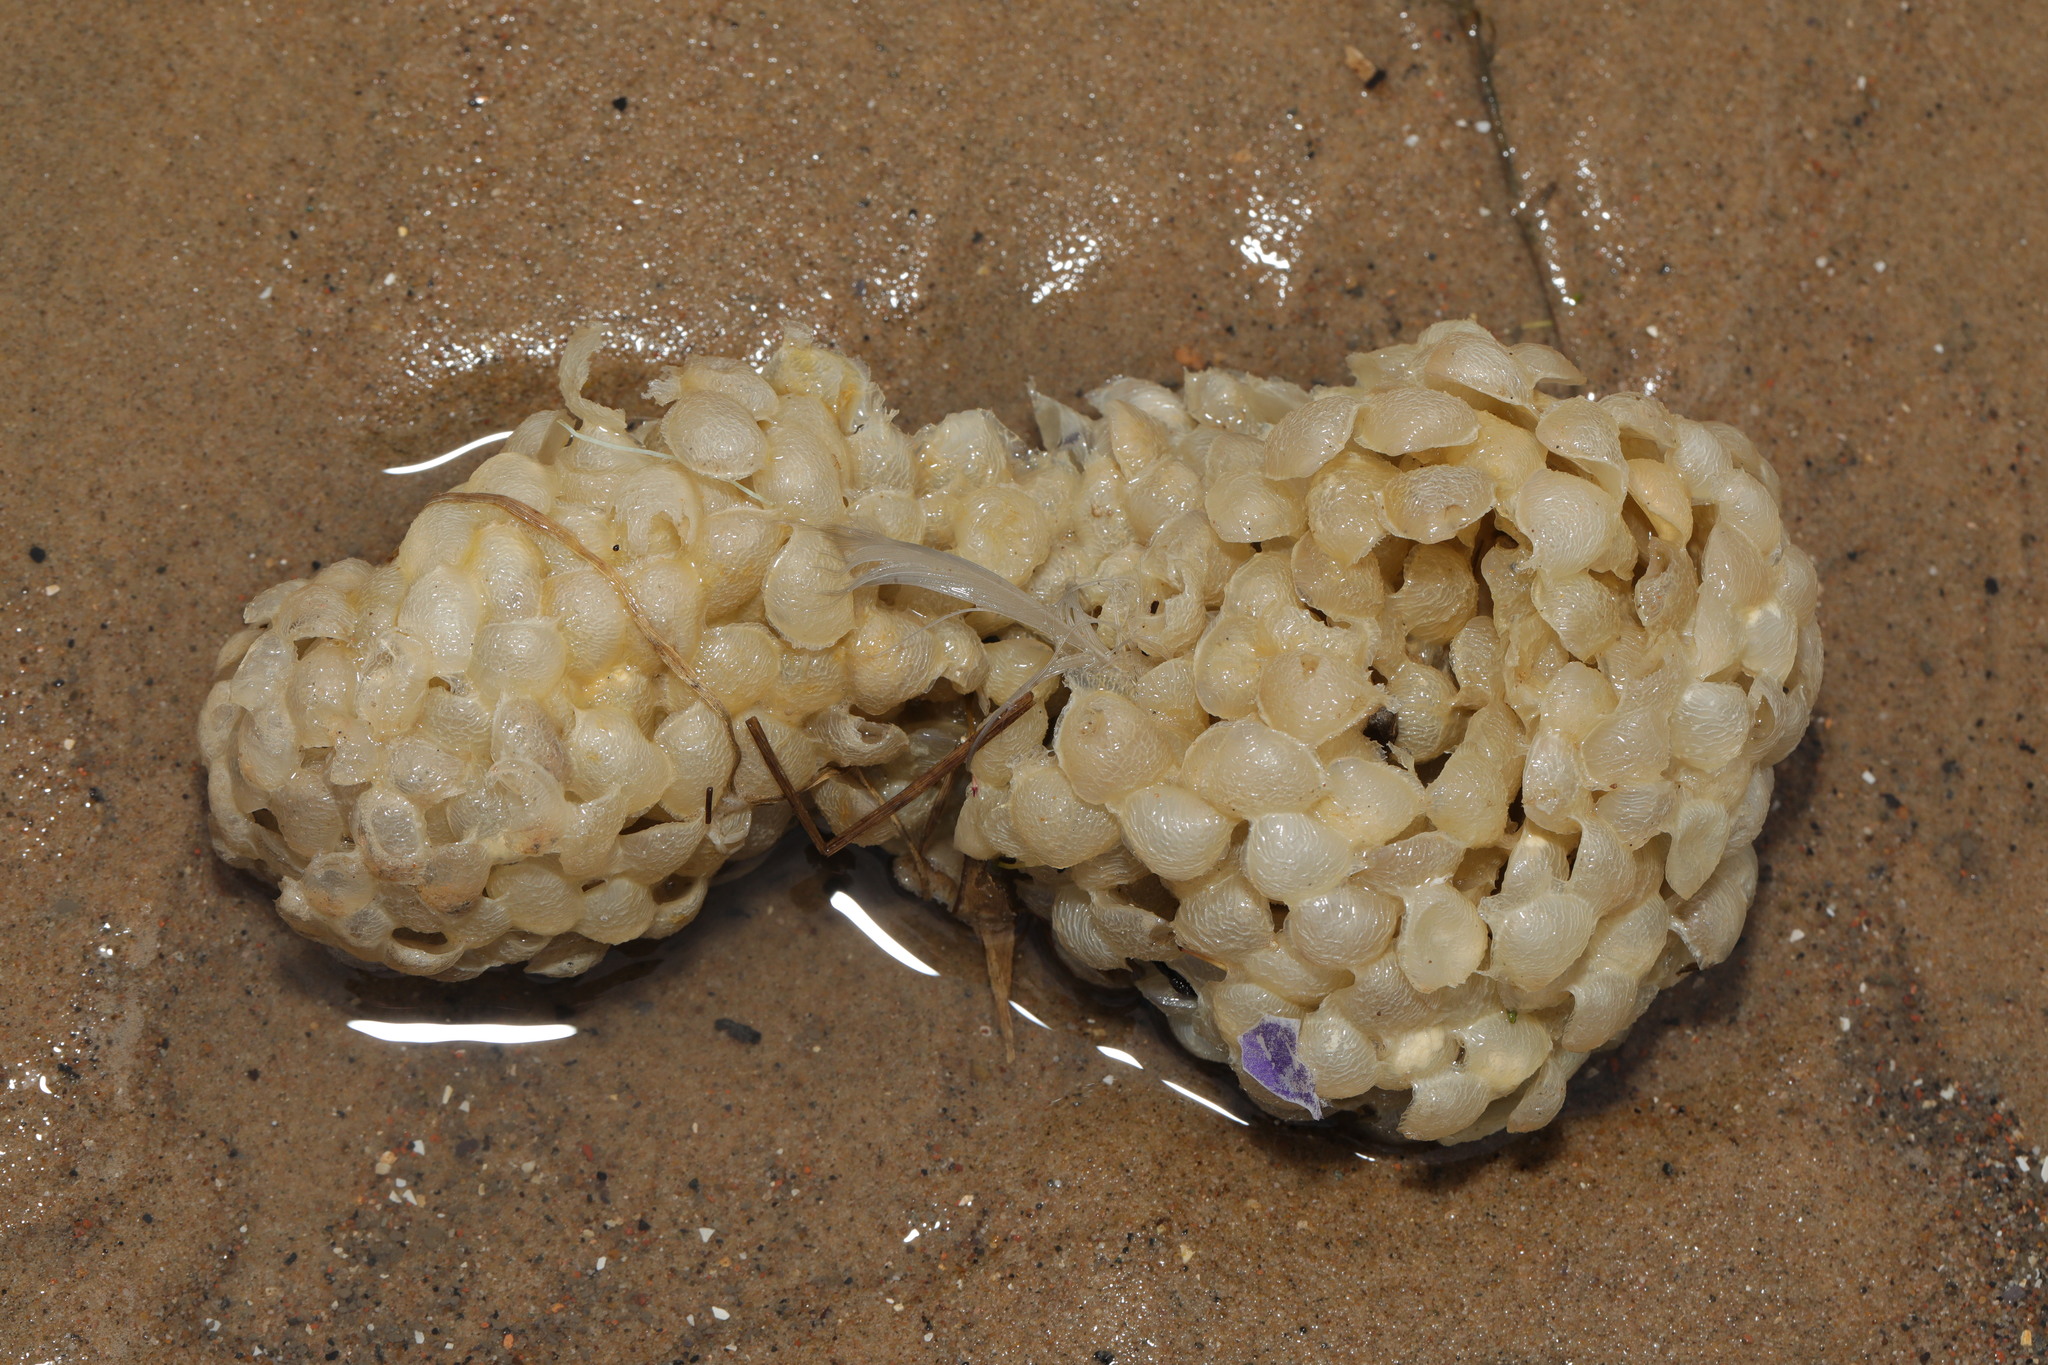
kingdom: Animalia
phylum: Mollusca
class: Gastropoda
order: Neogastropoda
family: Buccinidae
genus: Buccinum
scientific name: Buccinum undatum
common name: Common whelk
